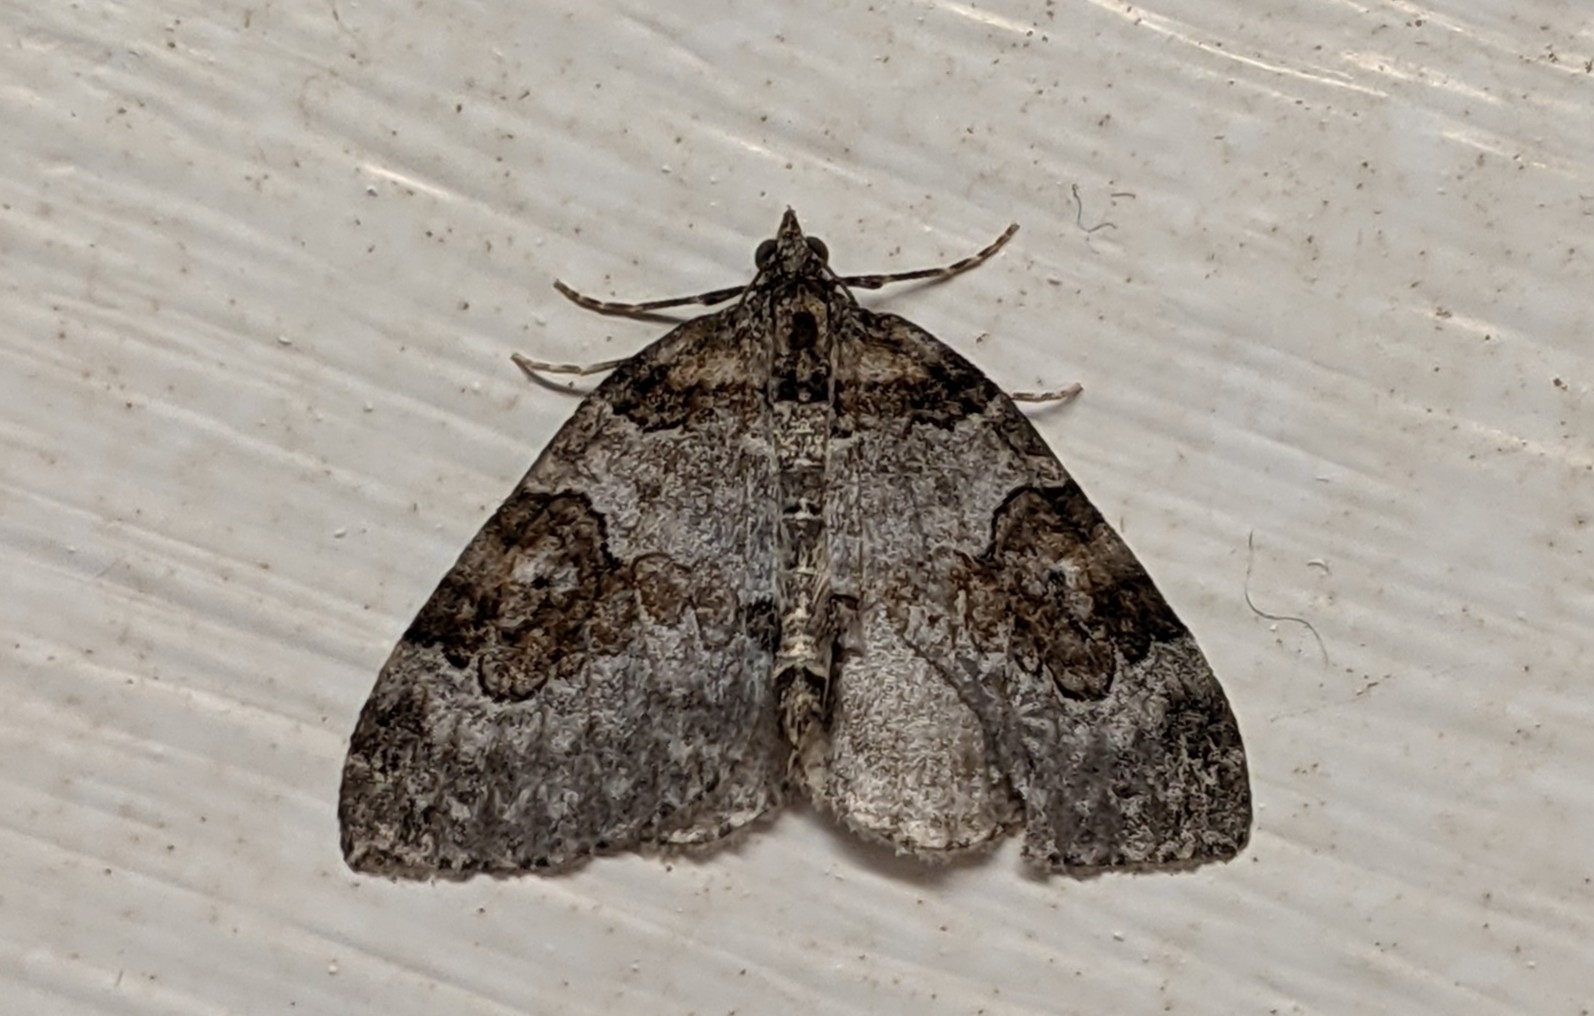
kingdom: Animalia
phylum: Arthropoda
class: Insecta
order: Lepidoptera
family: Geometridae
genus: Plemyria
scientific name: Plemyria georgii
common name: George's carpet moth
